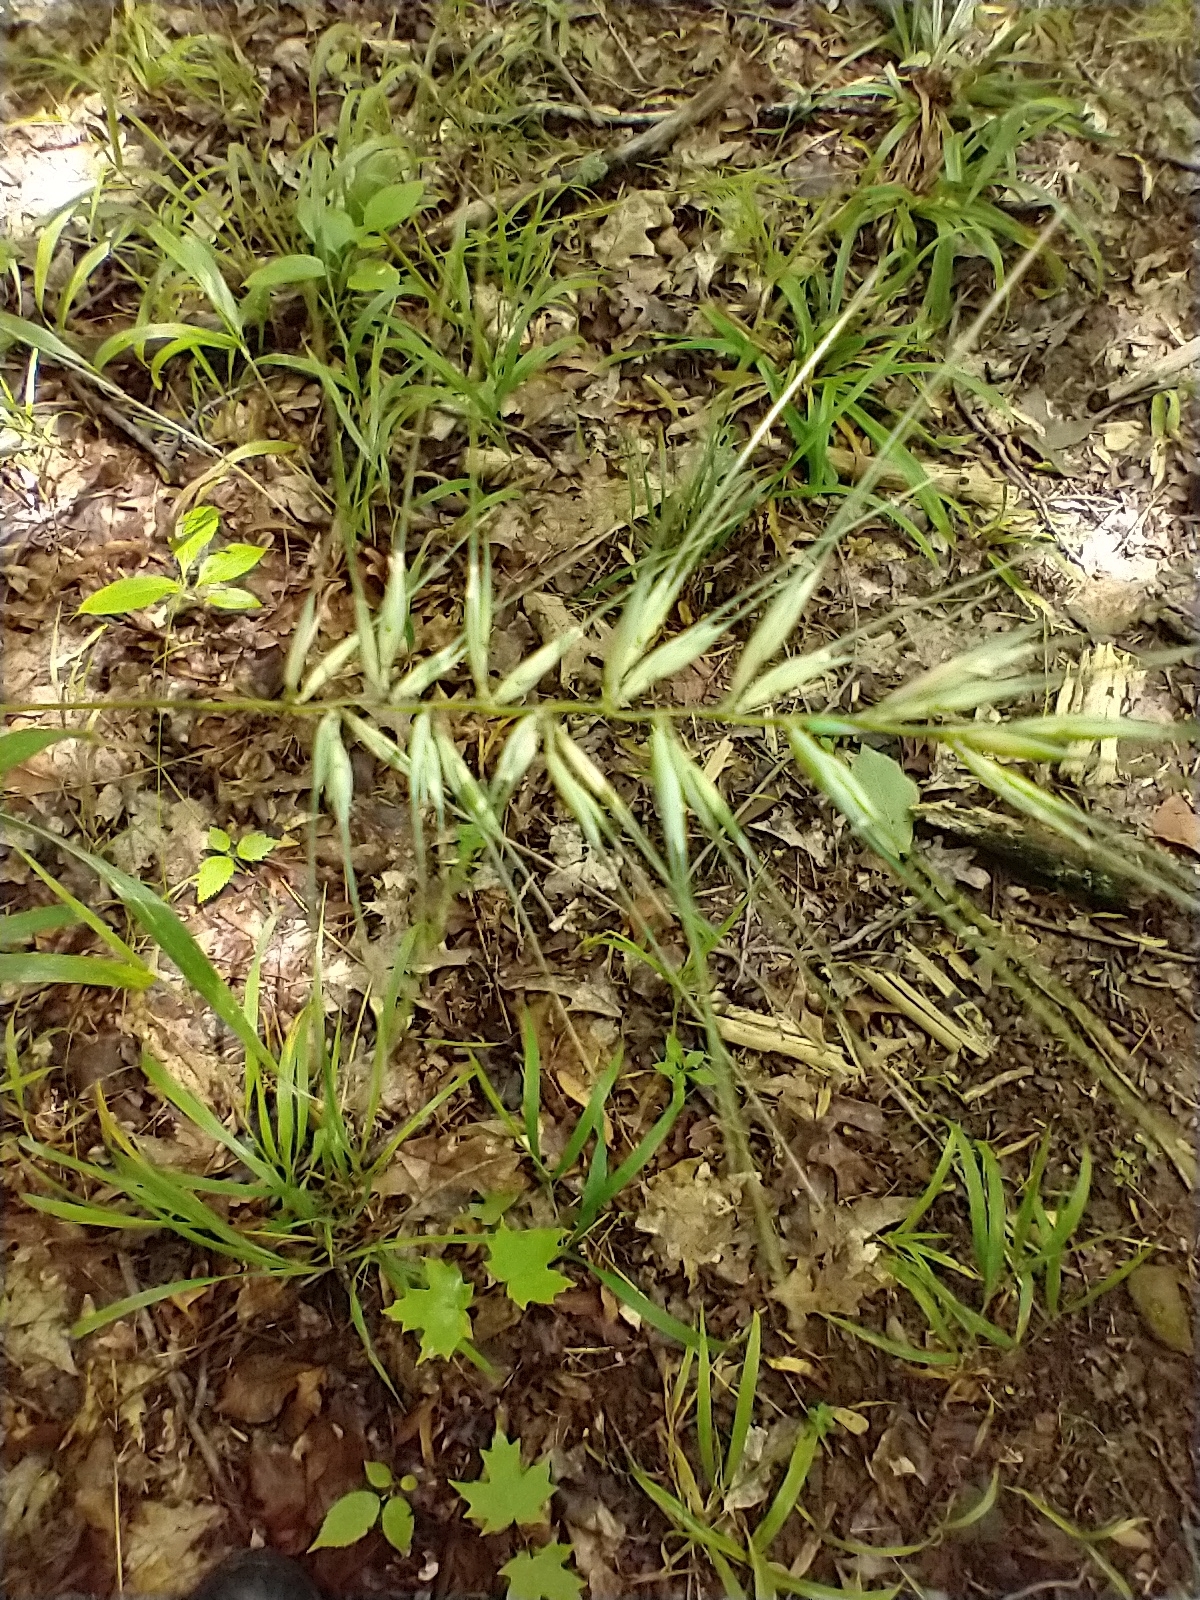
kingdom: Plantae
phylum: Tracheophyta
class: Liliopsida
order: Poales
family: Poaceae
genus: Elymus
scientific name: Elymus hystrix
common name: Bottlebrush grass
